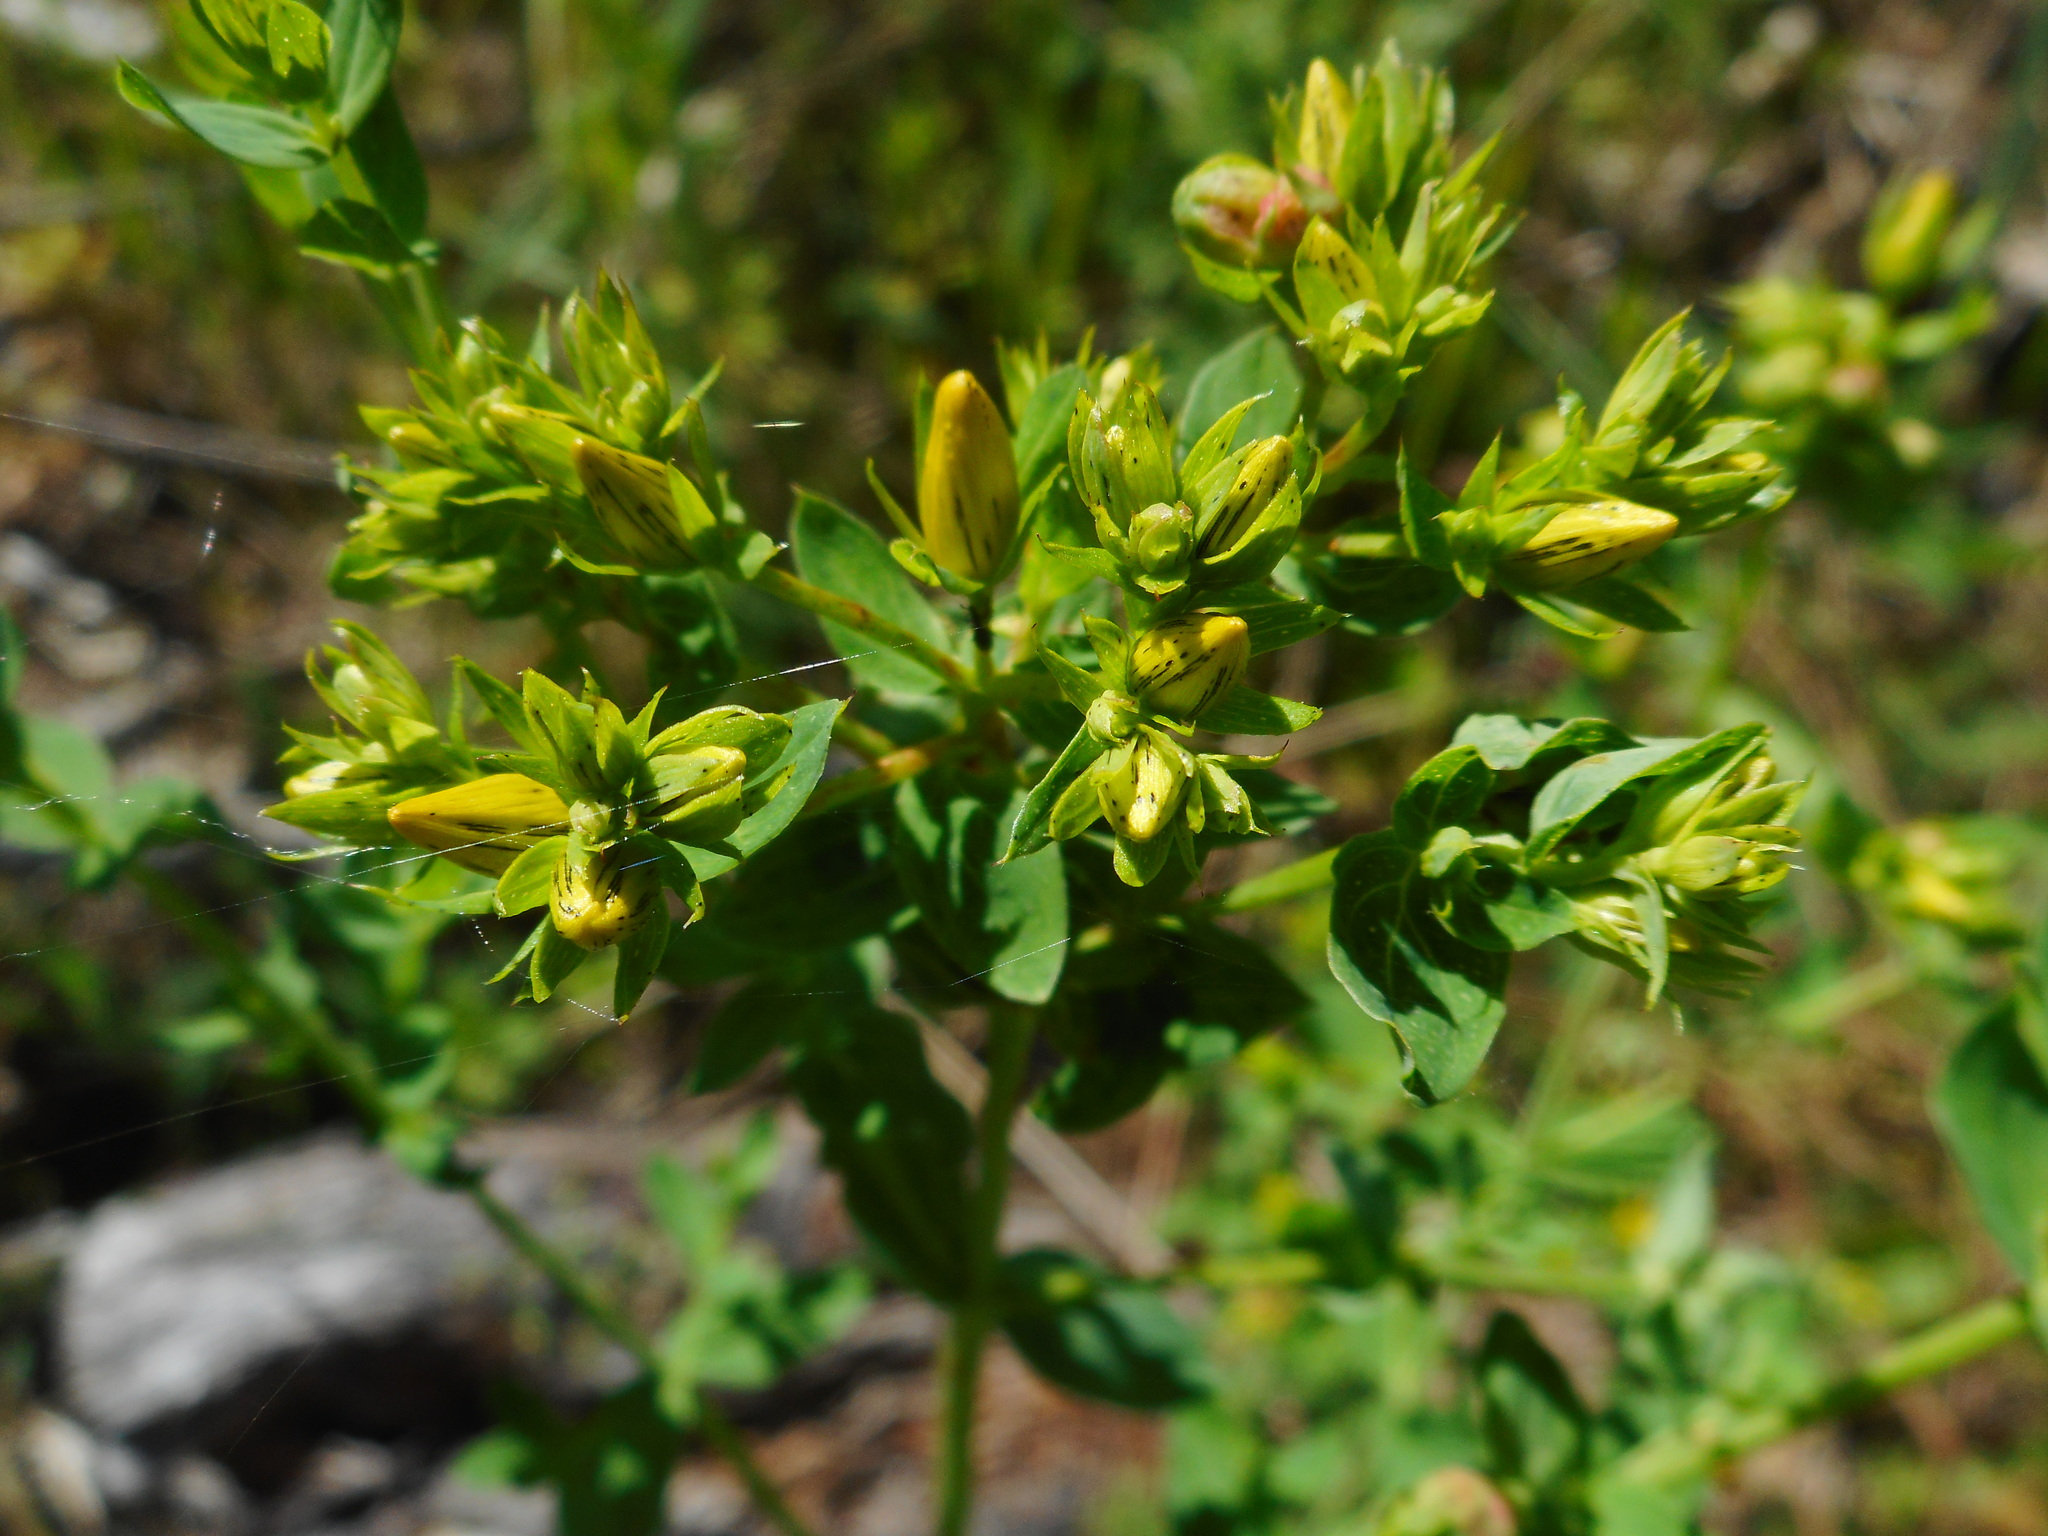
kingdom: Plantae
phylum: Tracheophyta
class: Magnoliopsida
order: Malpighiales
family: Hypericaceae
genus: Hypericum
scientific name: Hypericum perforatum
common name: Common st. johnswort
